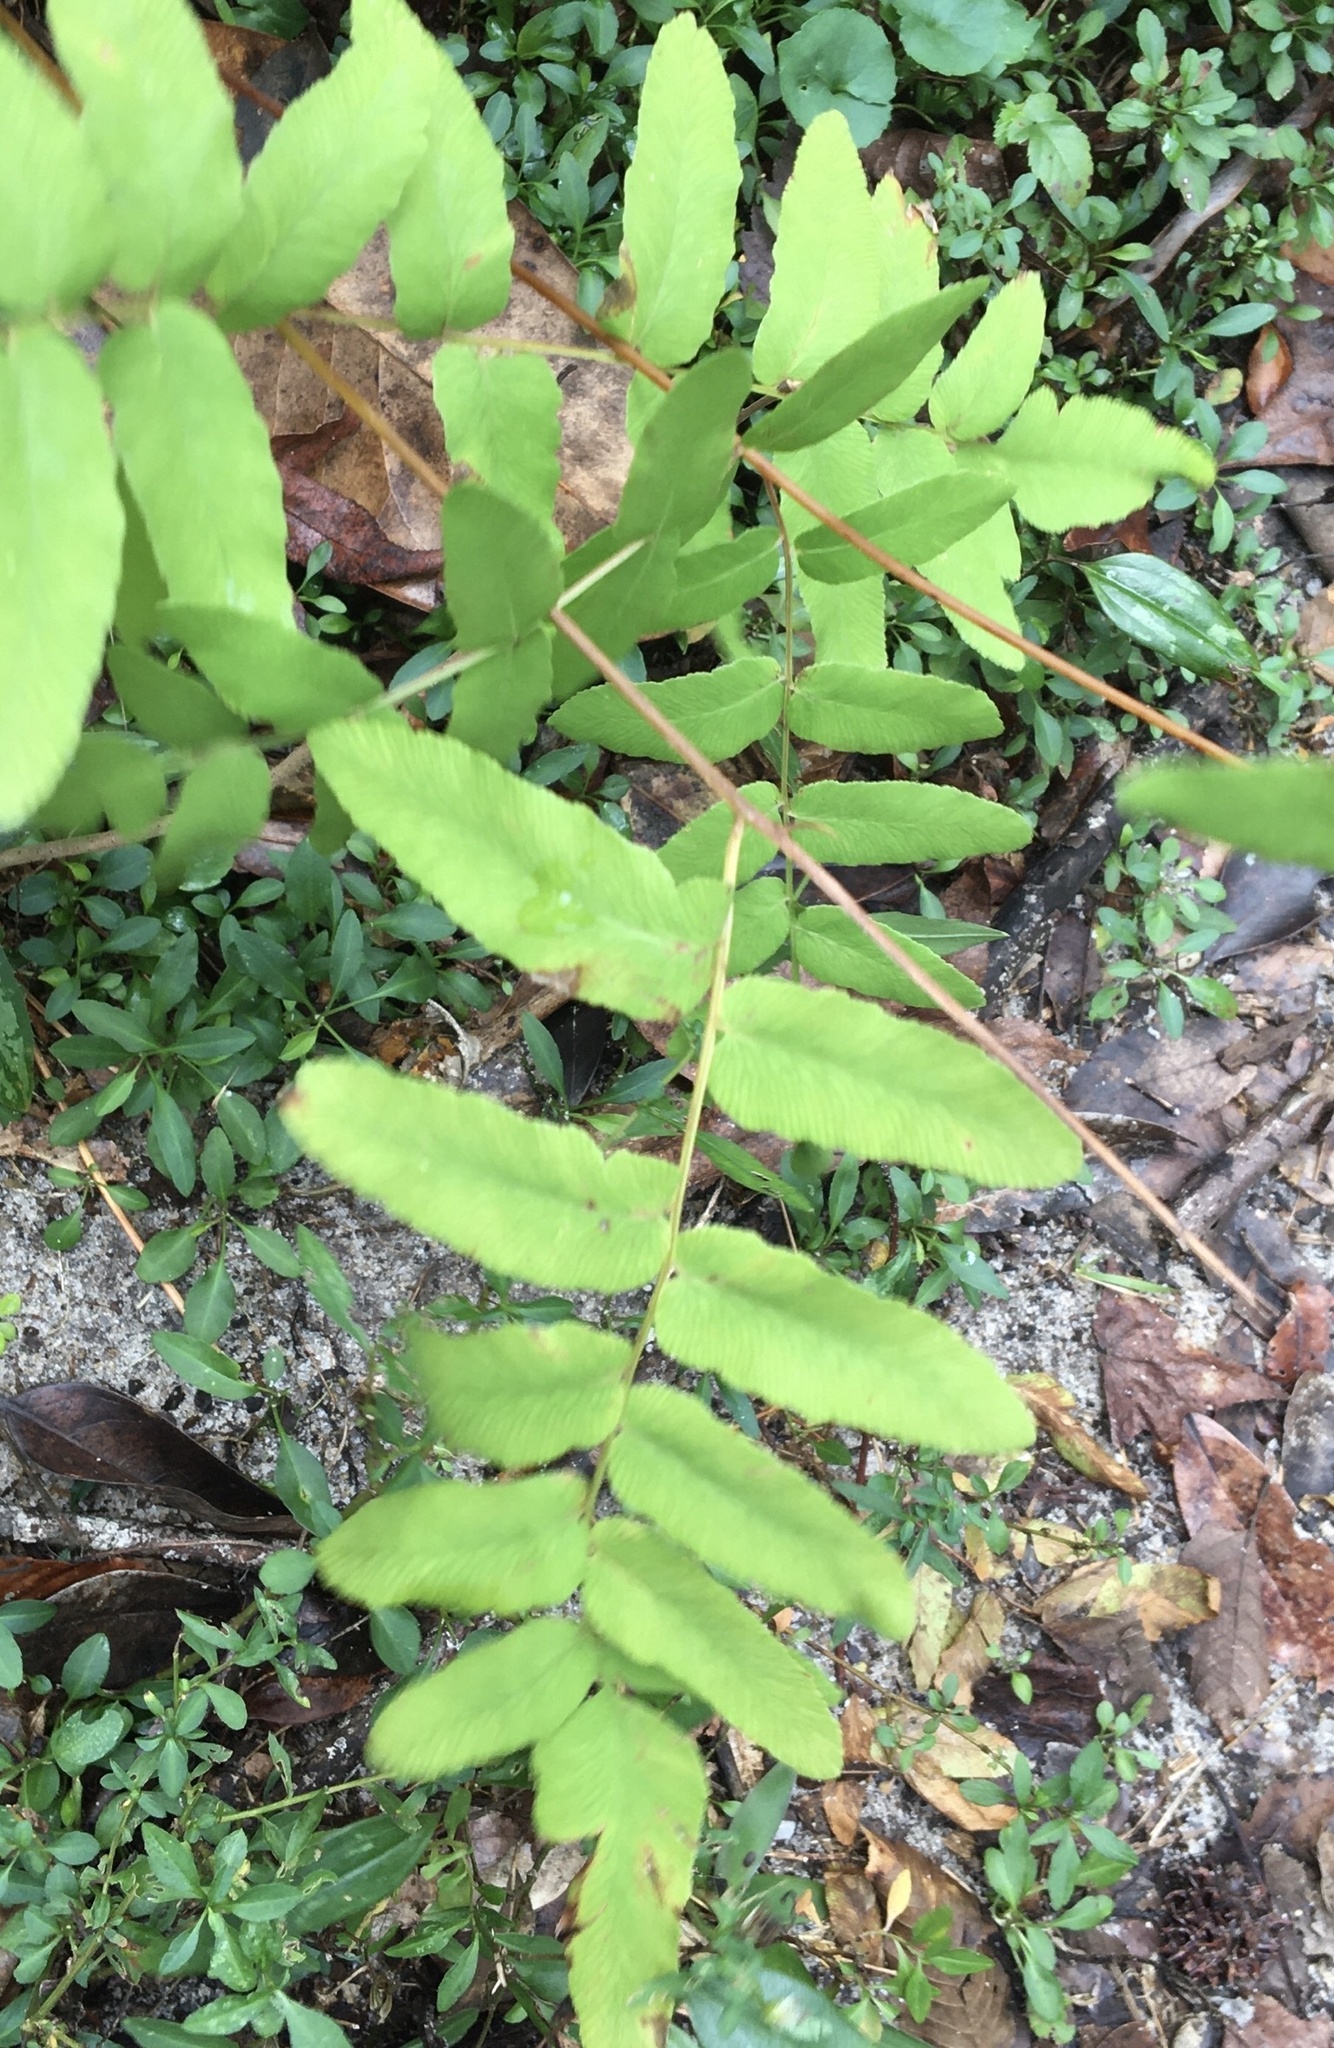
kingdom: Plantae
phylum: Tracheophyta
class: Polypodiopsida
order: Osmundales
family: Osmundaceae
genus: Osmunda
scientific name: Osmunda spectabilis
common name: American royal fern
